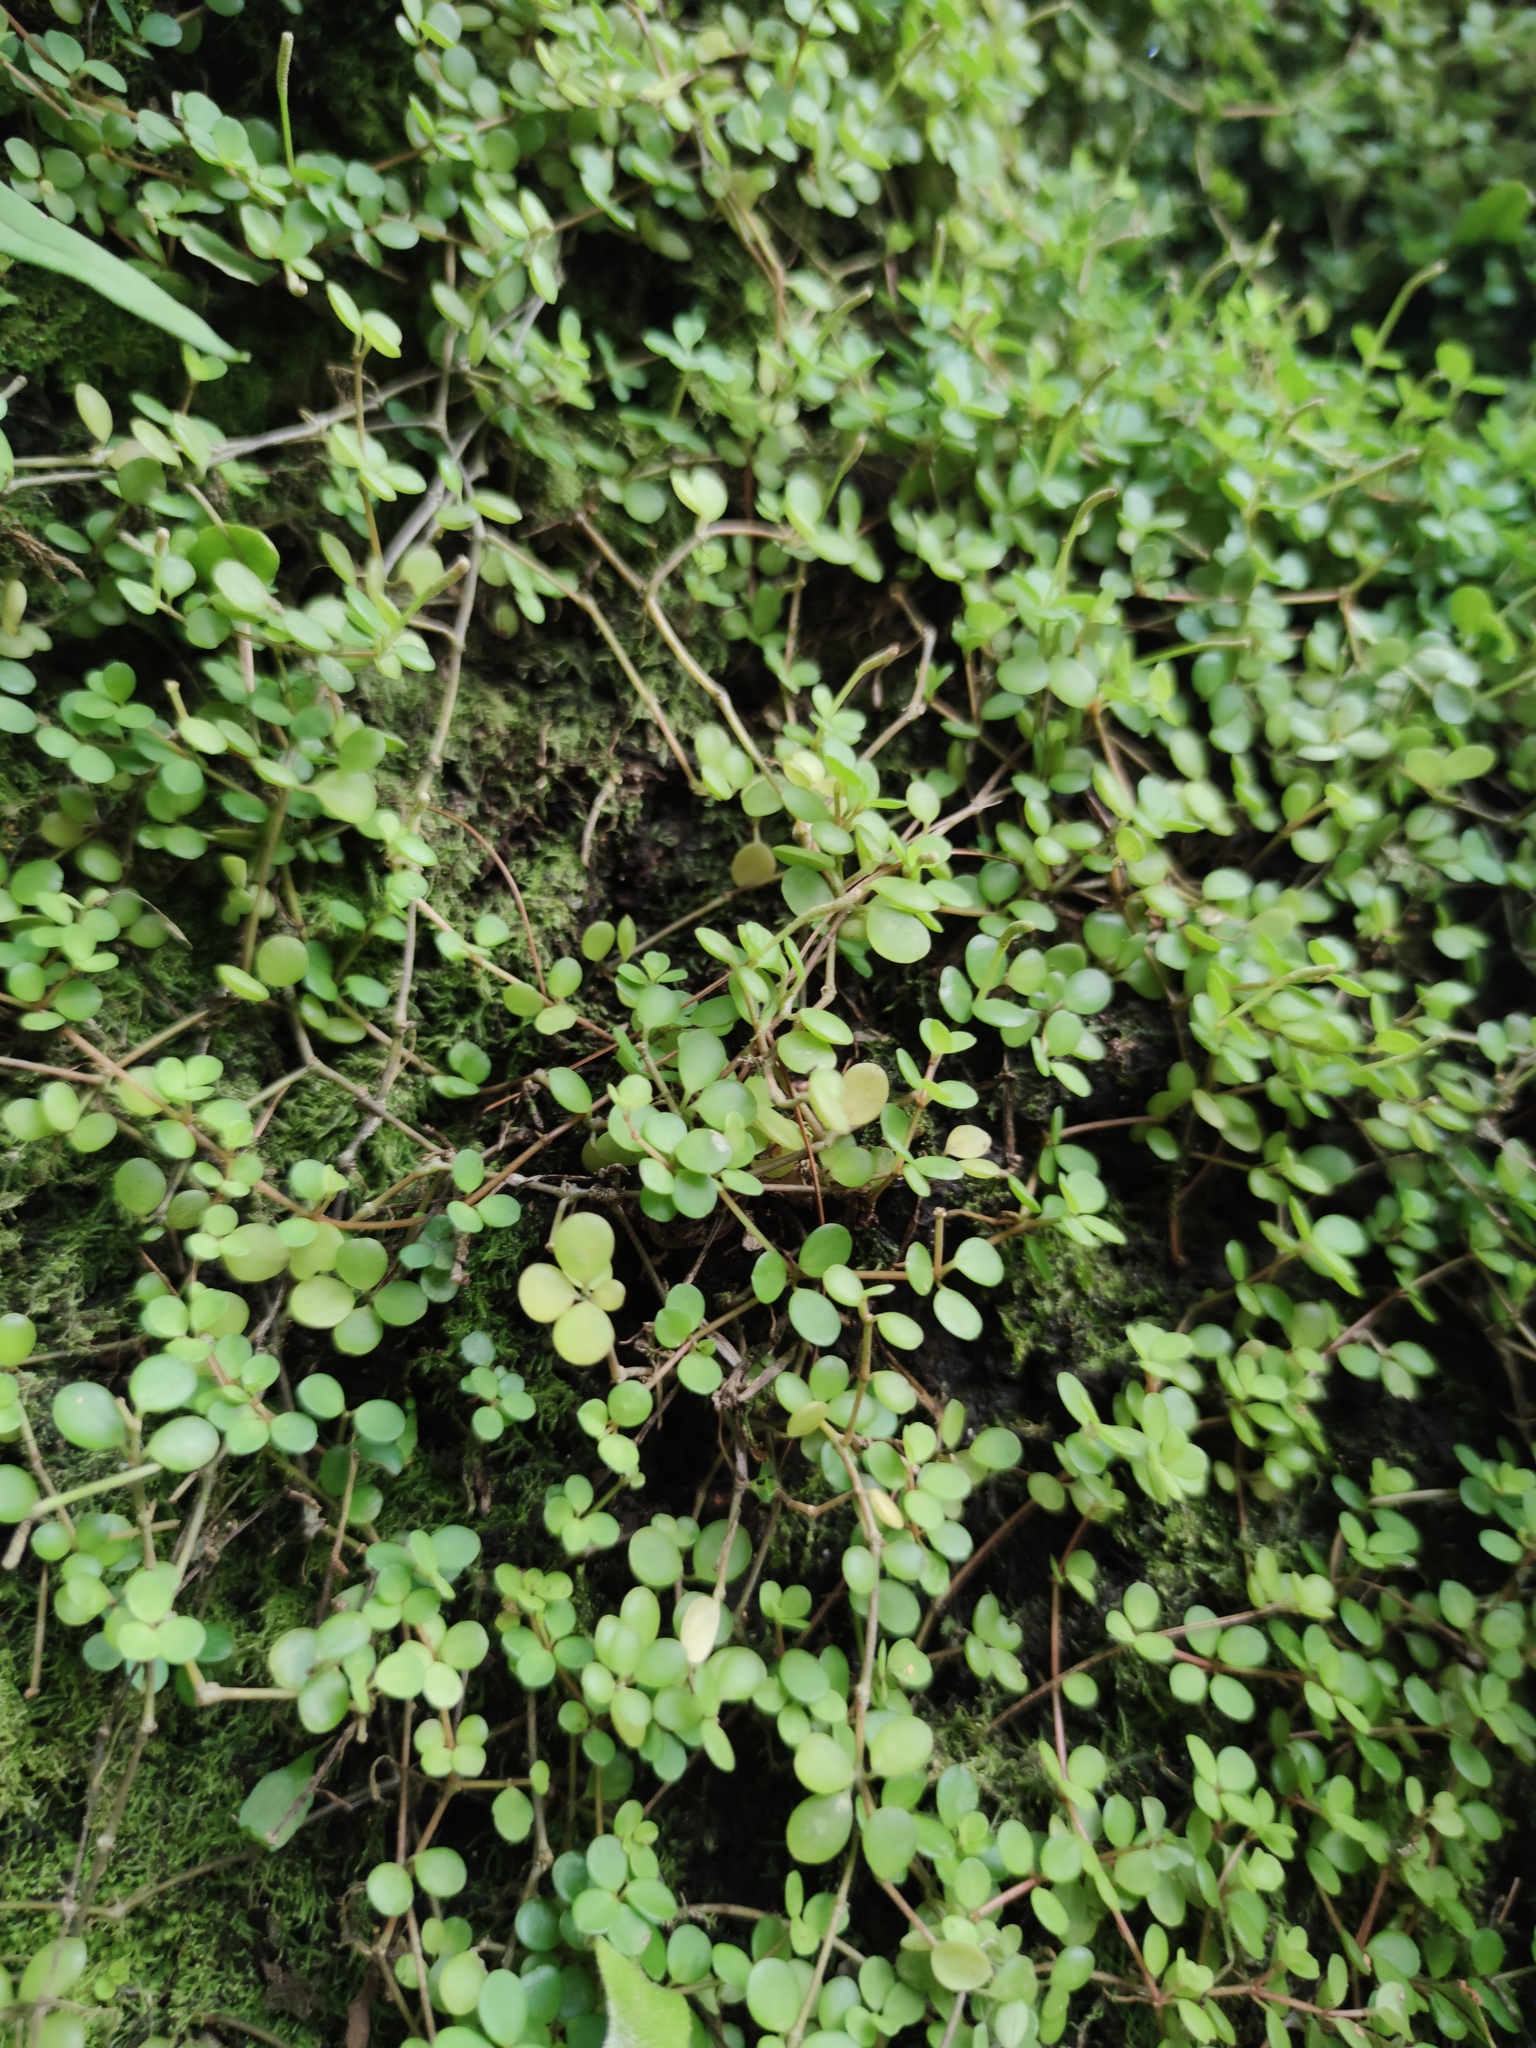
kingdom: Plantae
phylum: Tracheophyta
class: Magnoliopsida
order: Piperales
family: Piperaceae
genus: Peperomia
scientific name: Peperomia rotundifolia
